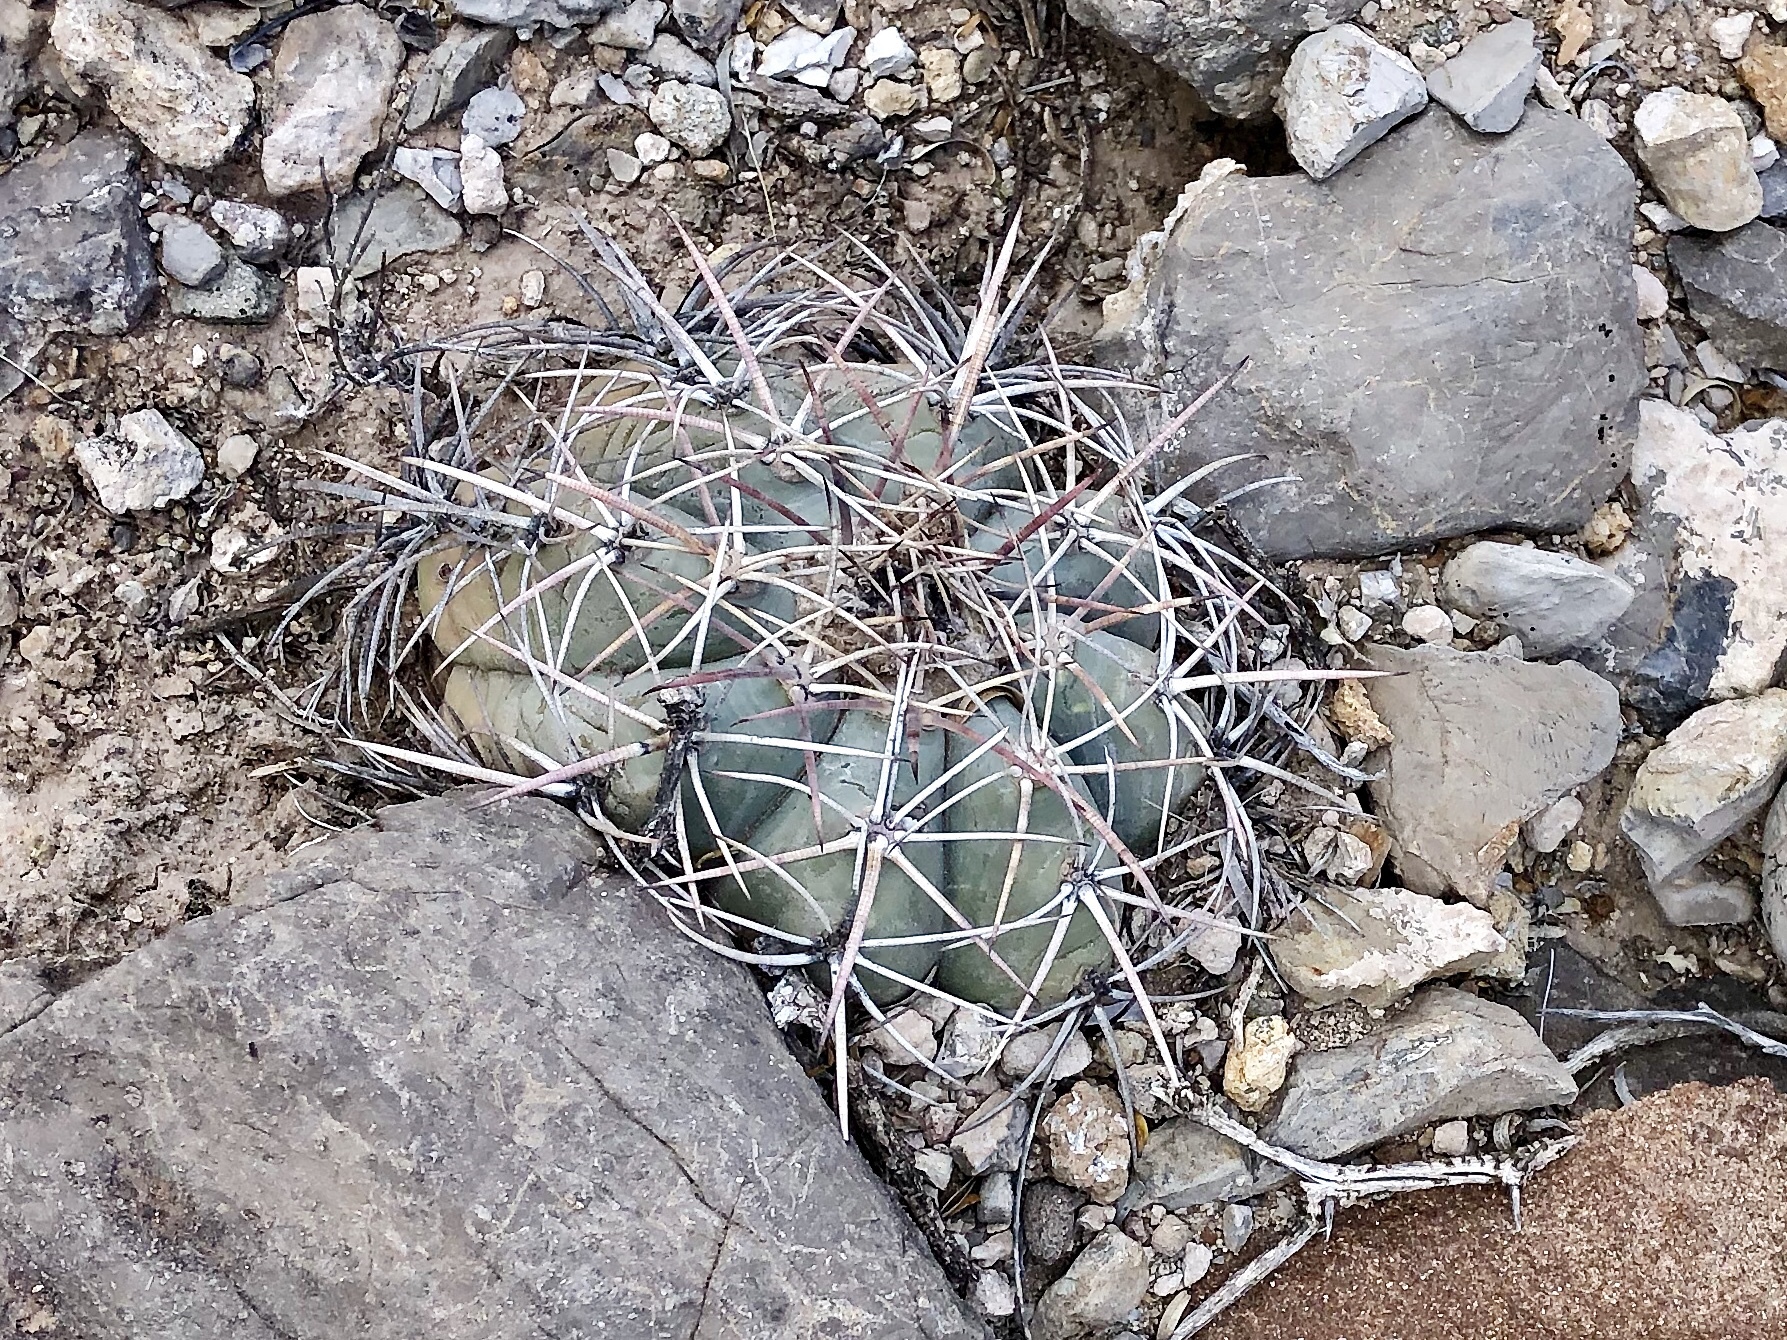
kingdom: Plantae
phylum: Tracheophyta
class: Magnoliopsida
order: Caryophyllales
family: Cactaceae
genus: Echinocactus
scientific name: Echinocactus horizonthalonius
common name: Devilshead
